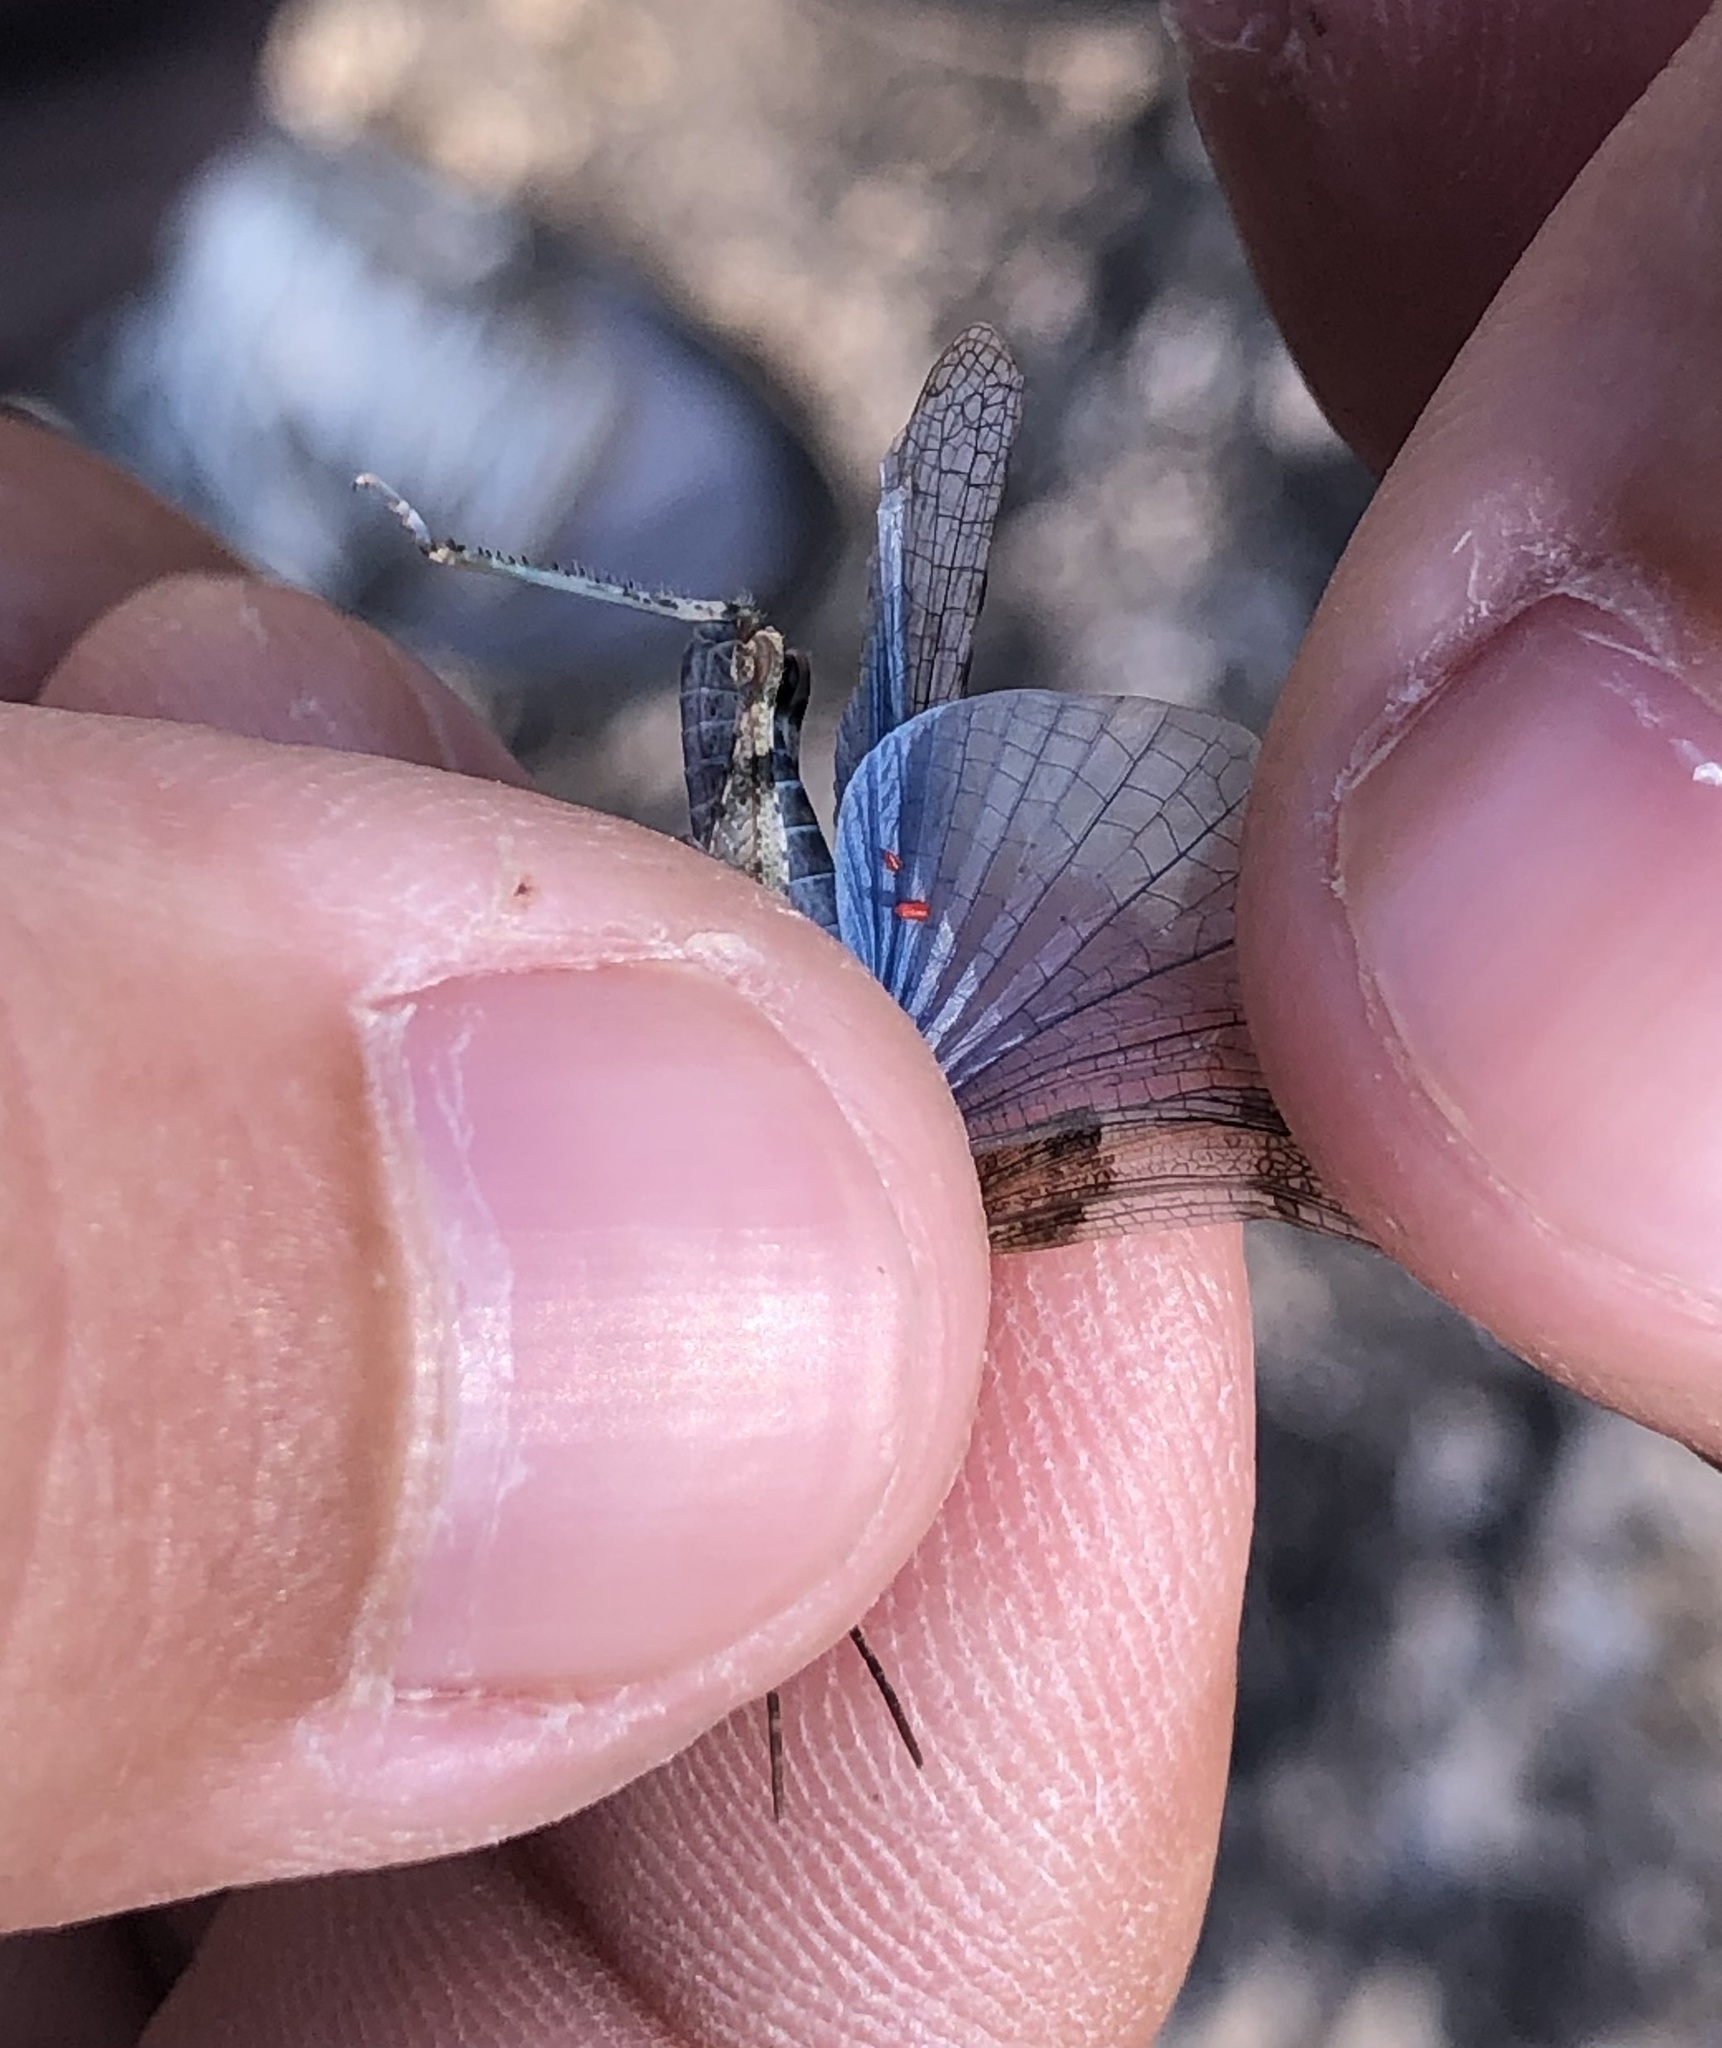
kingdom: Animalia
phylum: Arthropoda
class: Insecta
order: Orthoptera
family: Acrididae
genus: Sphingonotus
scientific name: Sphingonotus caerulans
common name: Blue-winged locust
